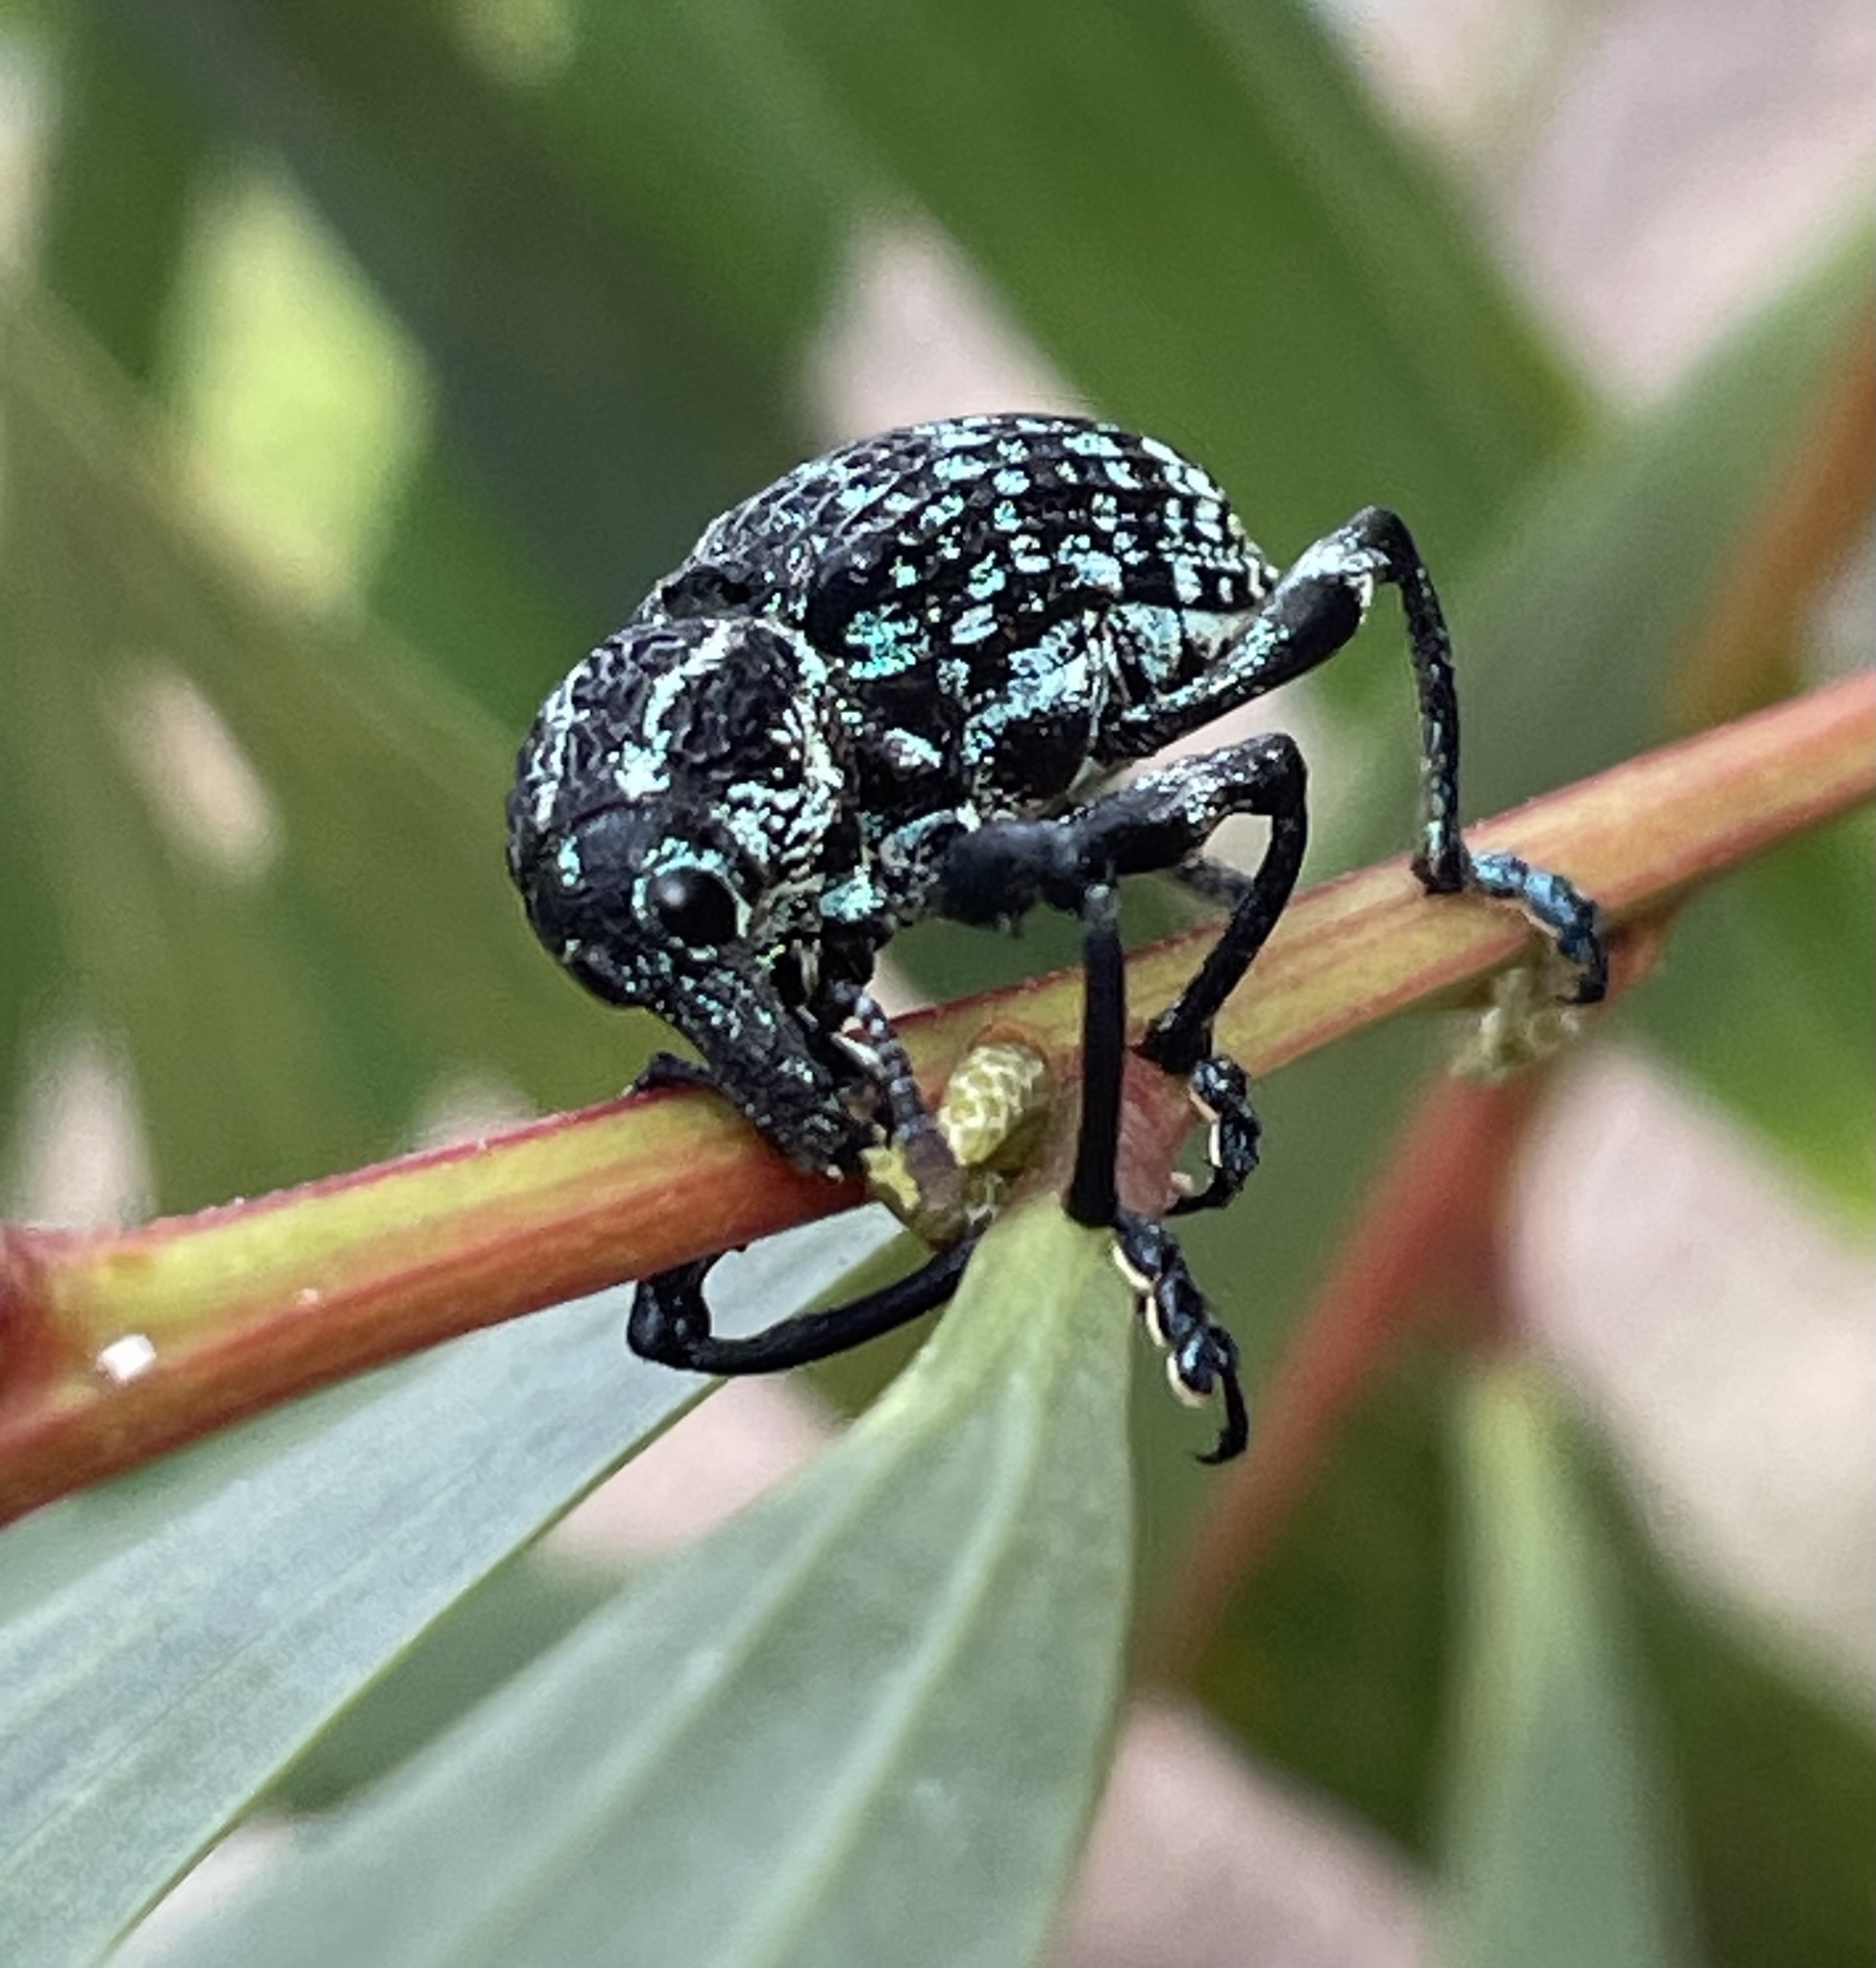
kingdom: Animalia
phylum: Arthropoda
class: Insecta
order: Coleoptera
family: Curculionidae
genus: Chrysolopus
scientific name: Chrysolopus spectabilis
